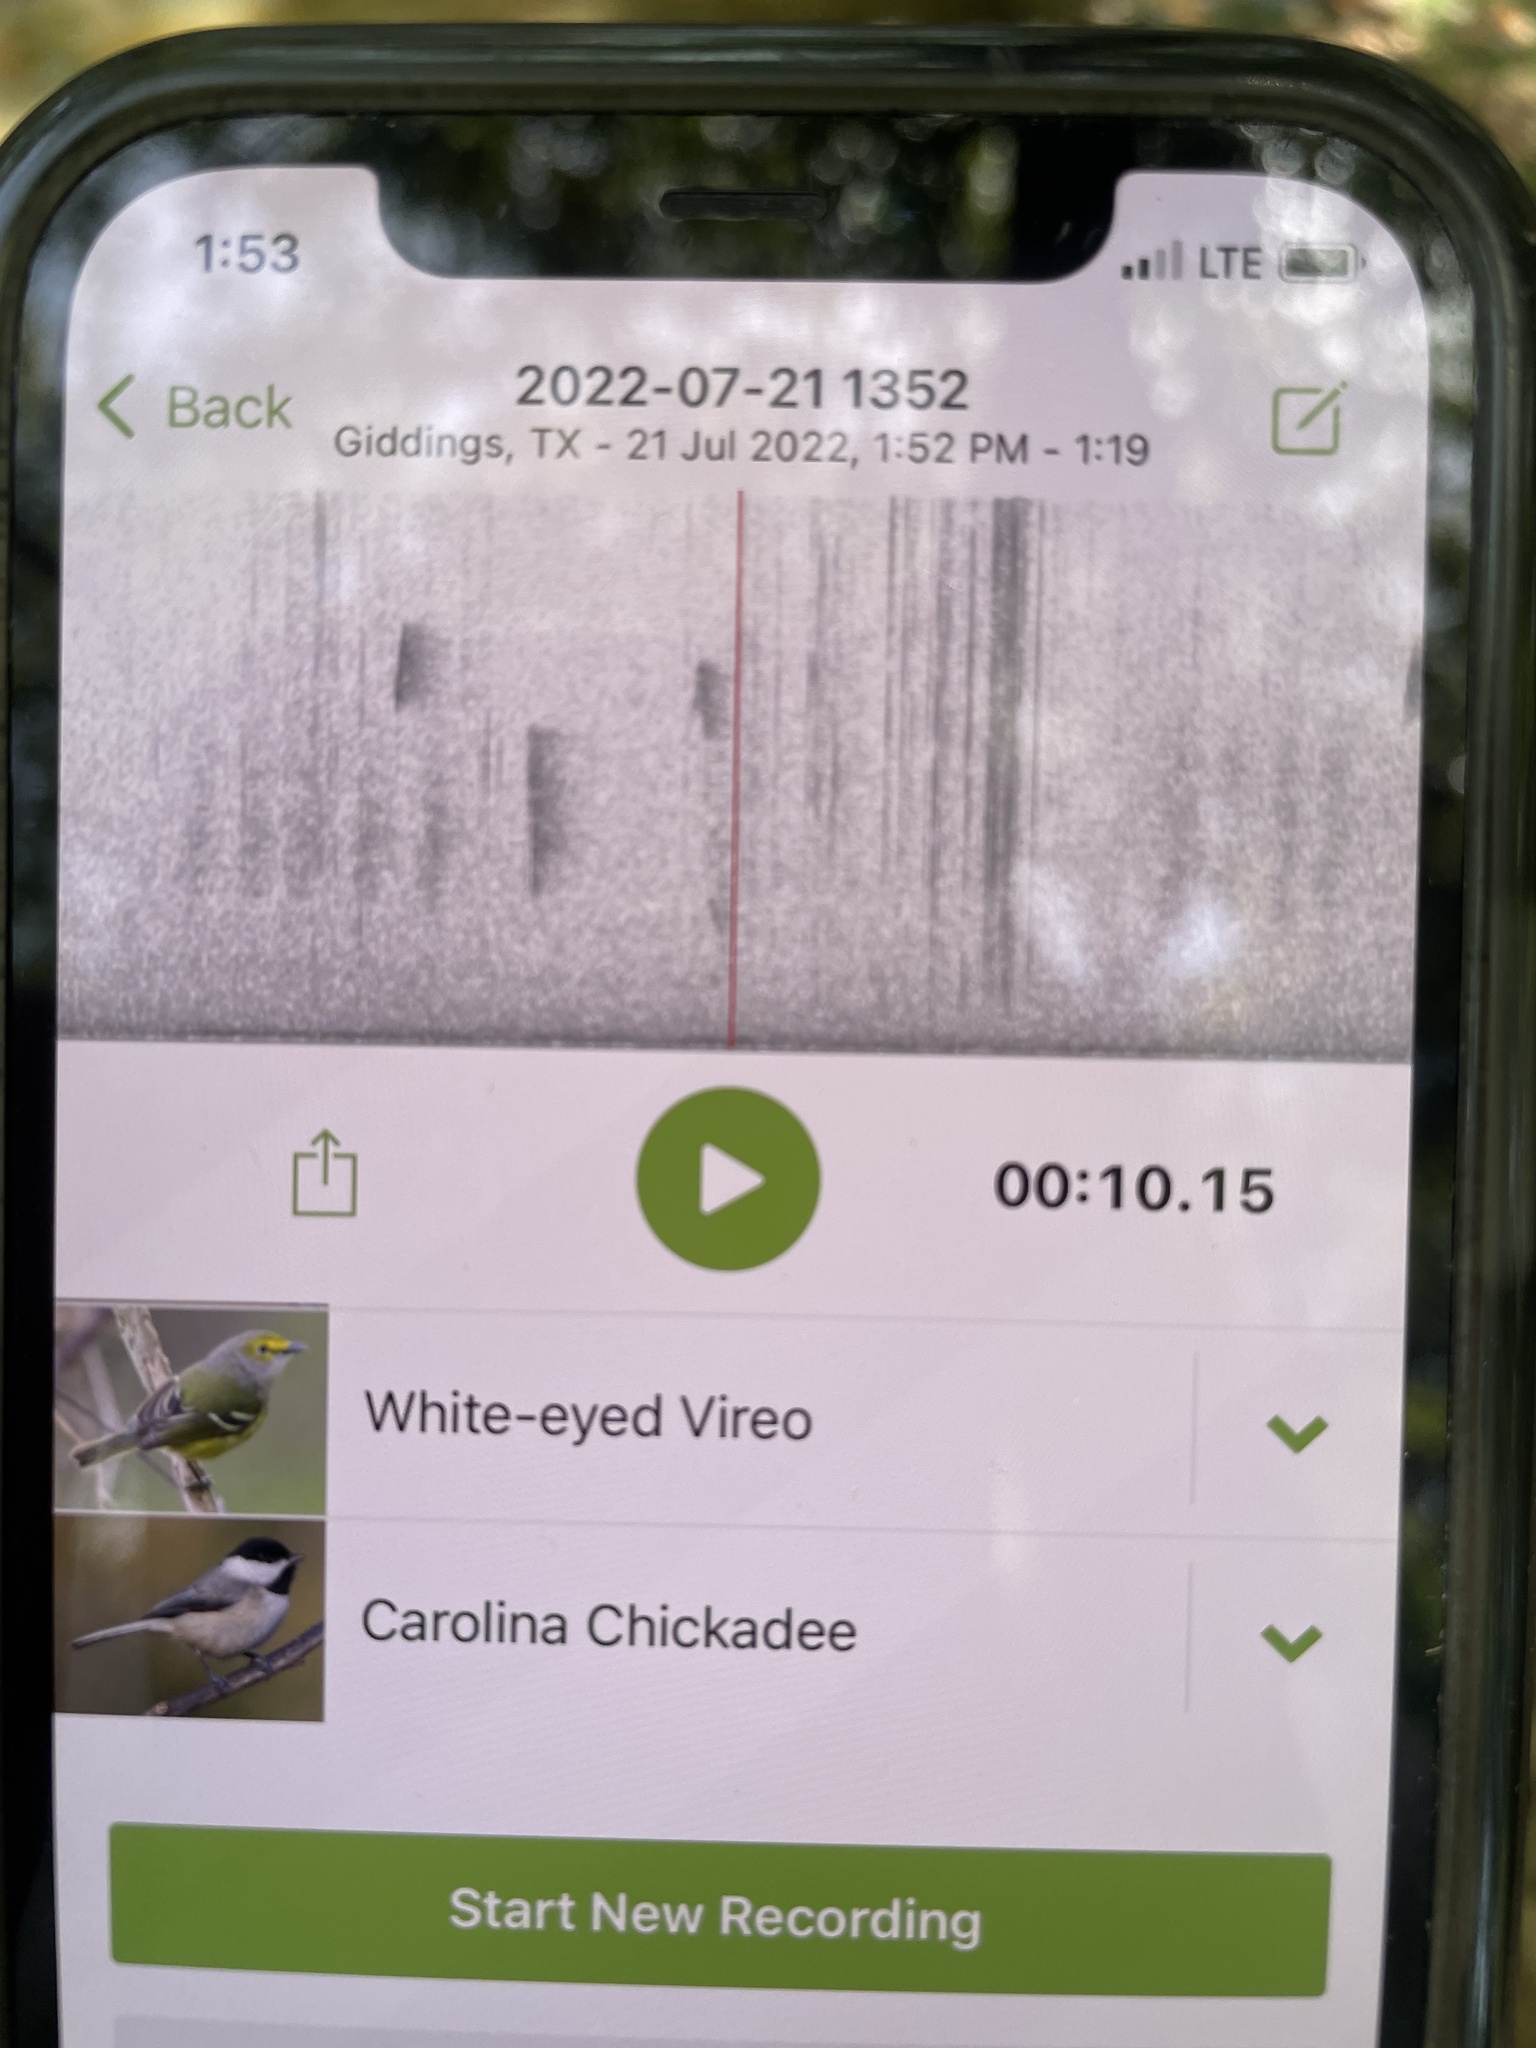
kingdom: Animalia
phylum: Chordata
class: Aves
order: Passeriformes
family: Vireonidae
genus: Vireo
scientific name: Vireo griseus
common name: White-eyed vireo
